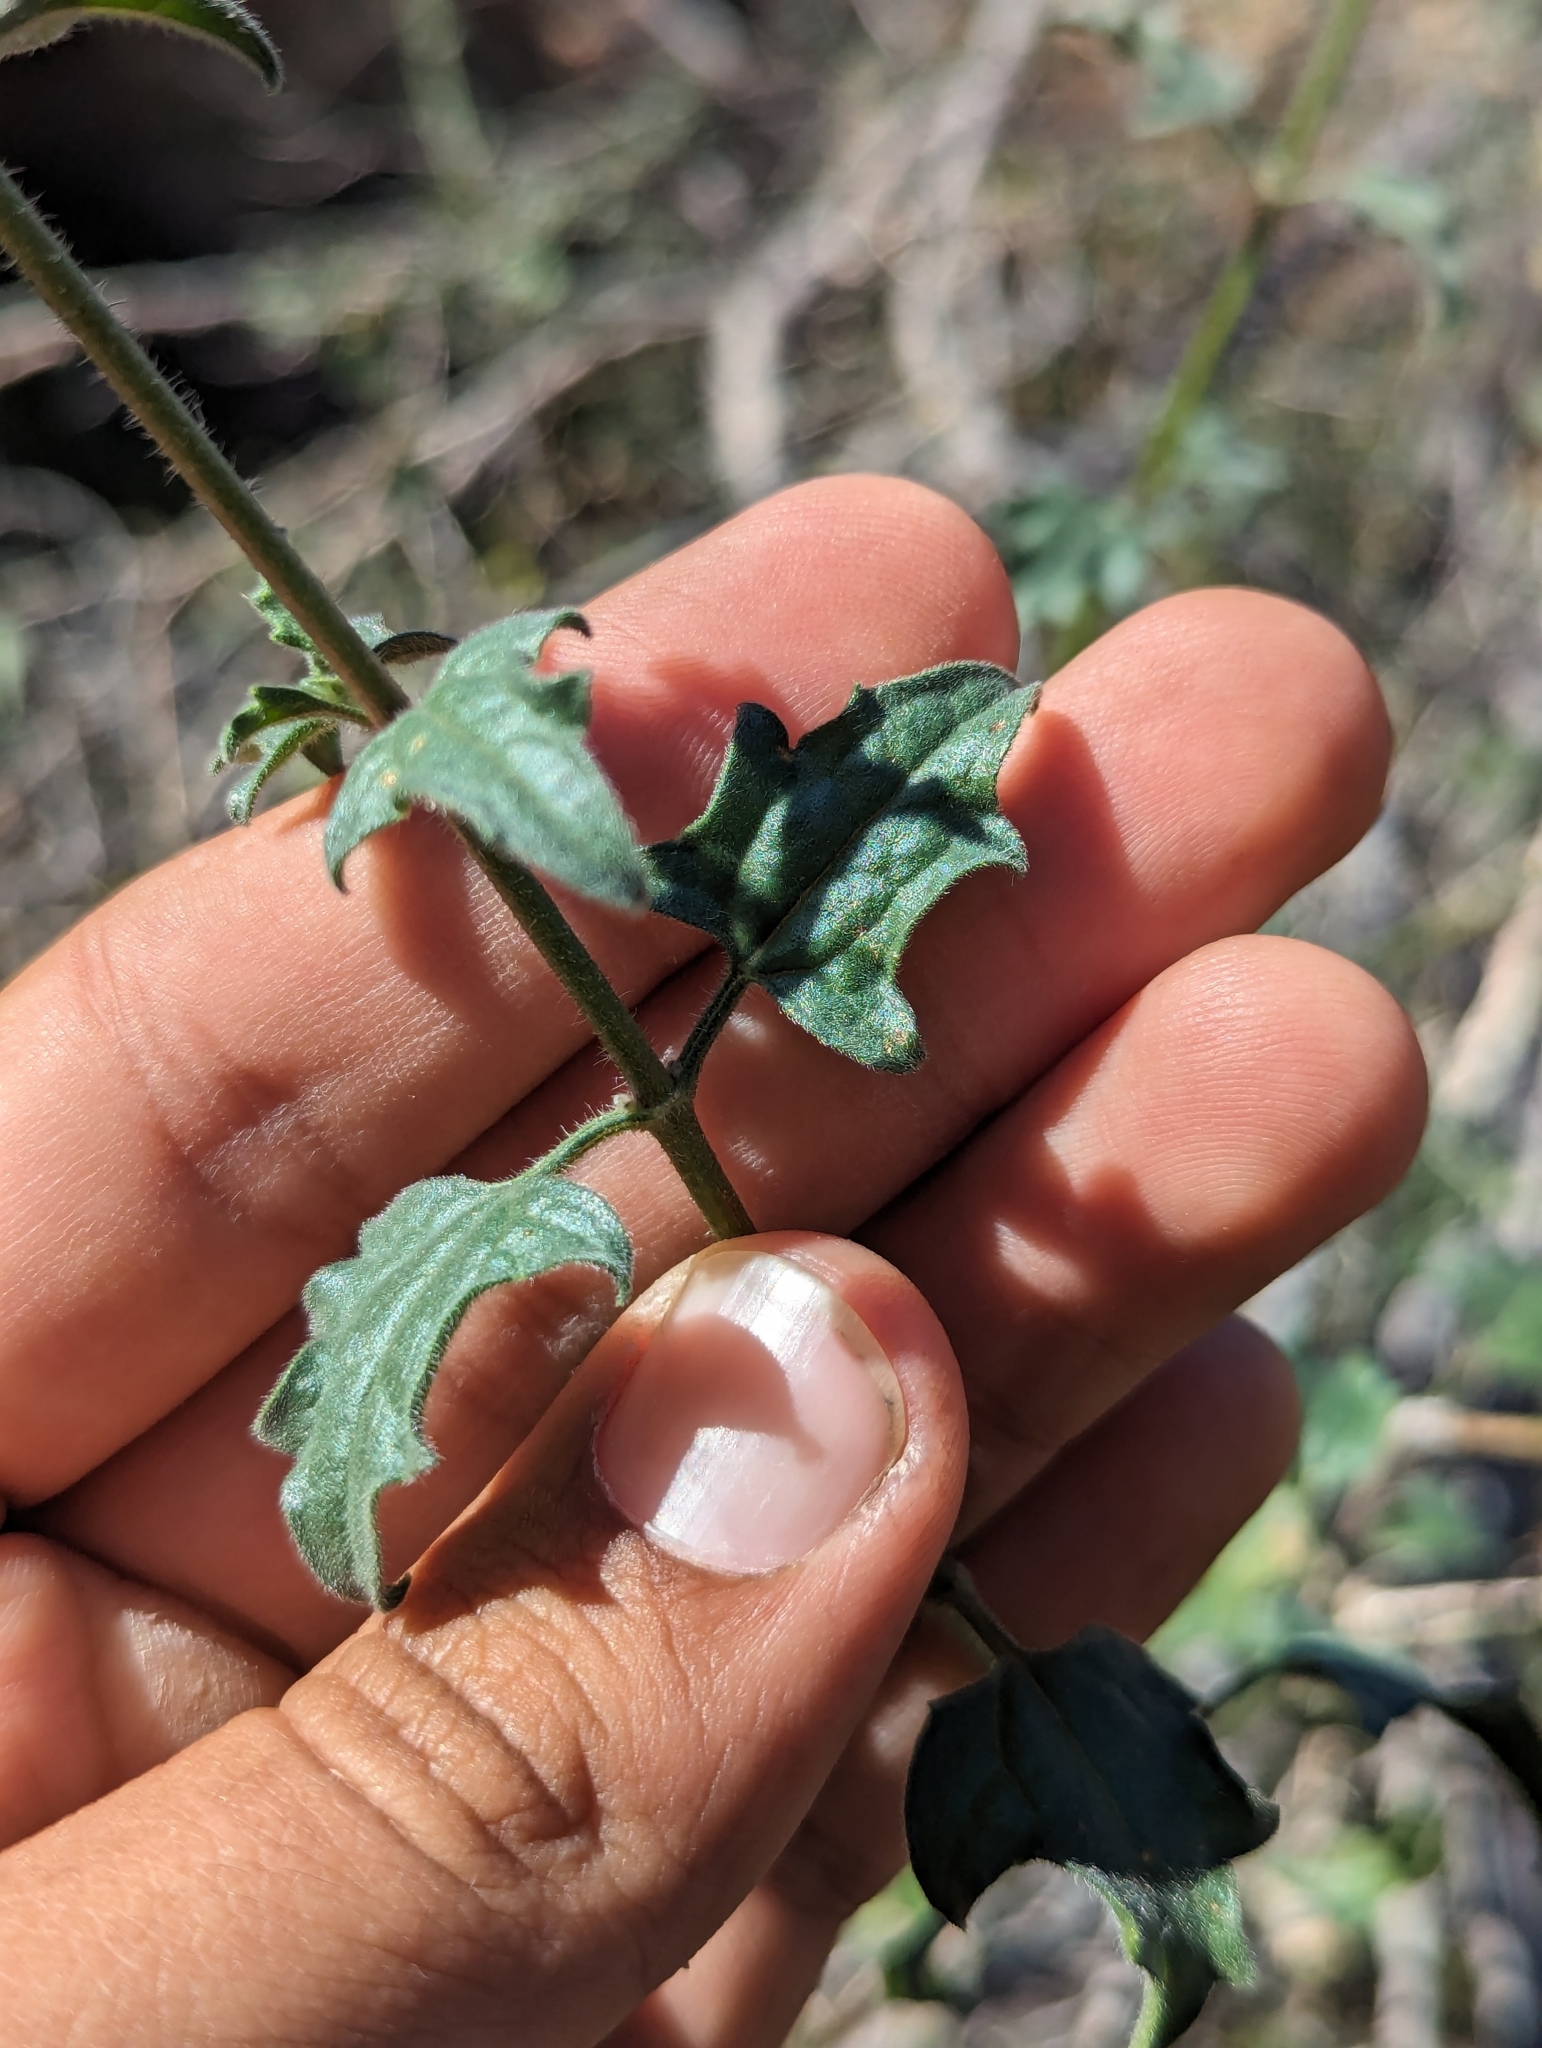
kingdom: Plantae
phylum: Tracheophyta
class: Magnoliopsida
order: Asterales
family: Asteraceae
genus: Bebbia
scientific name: Bebbia atriplicifolia
